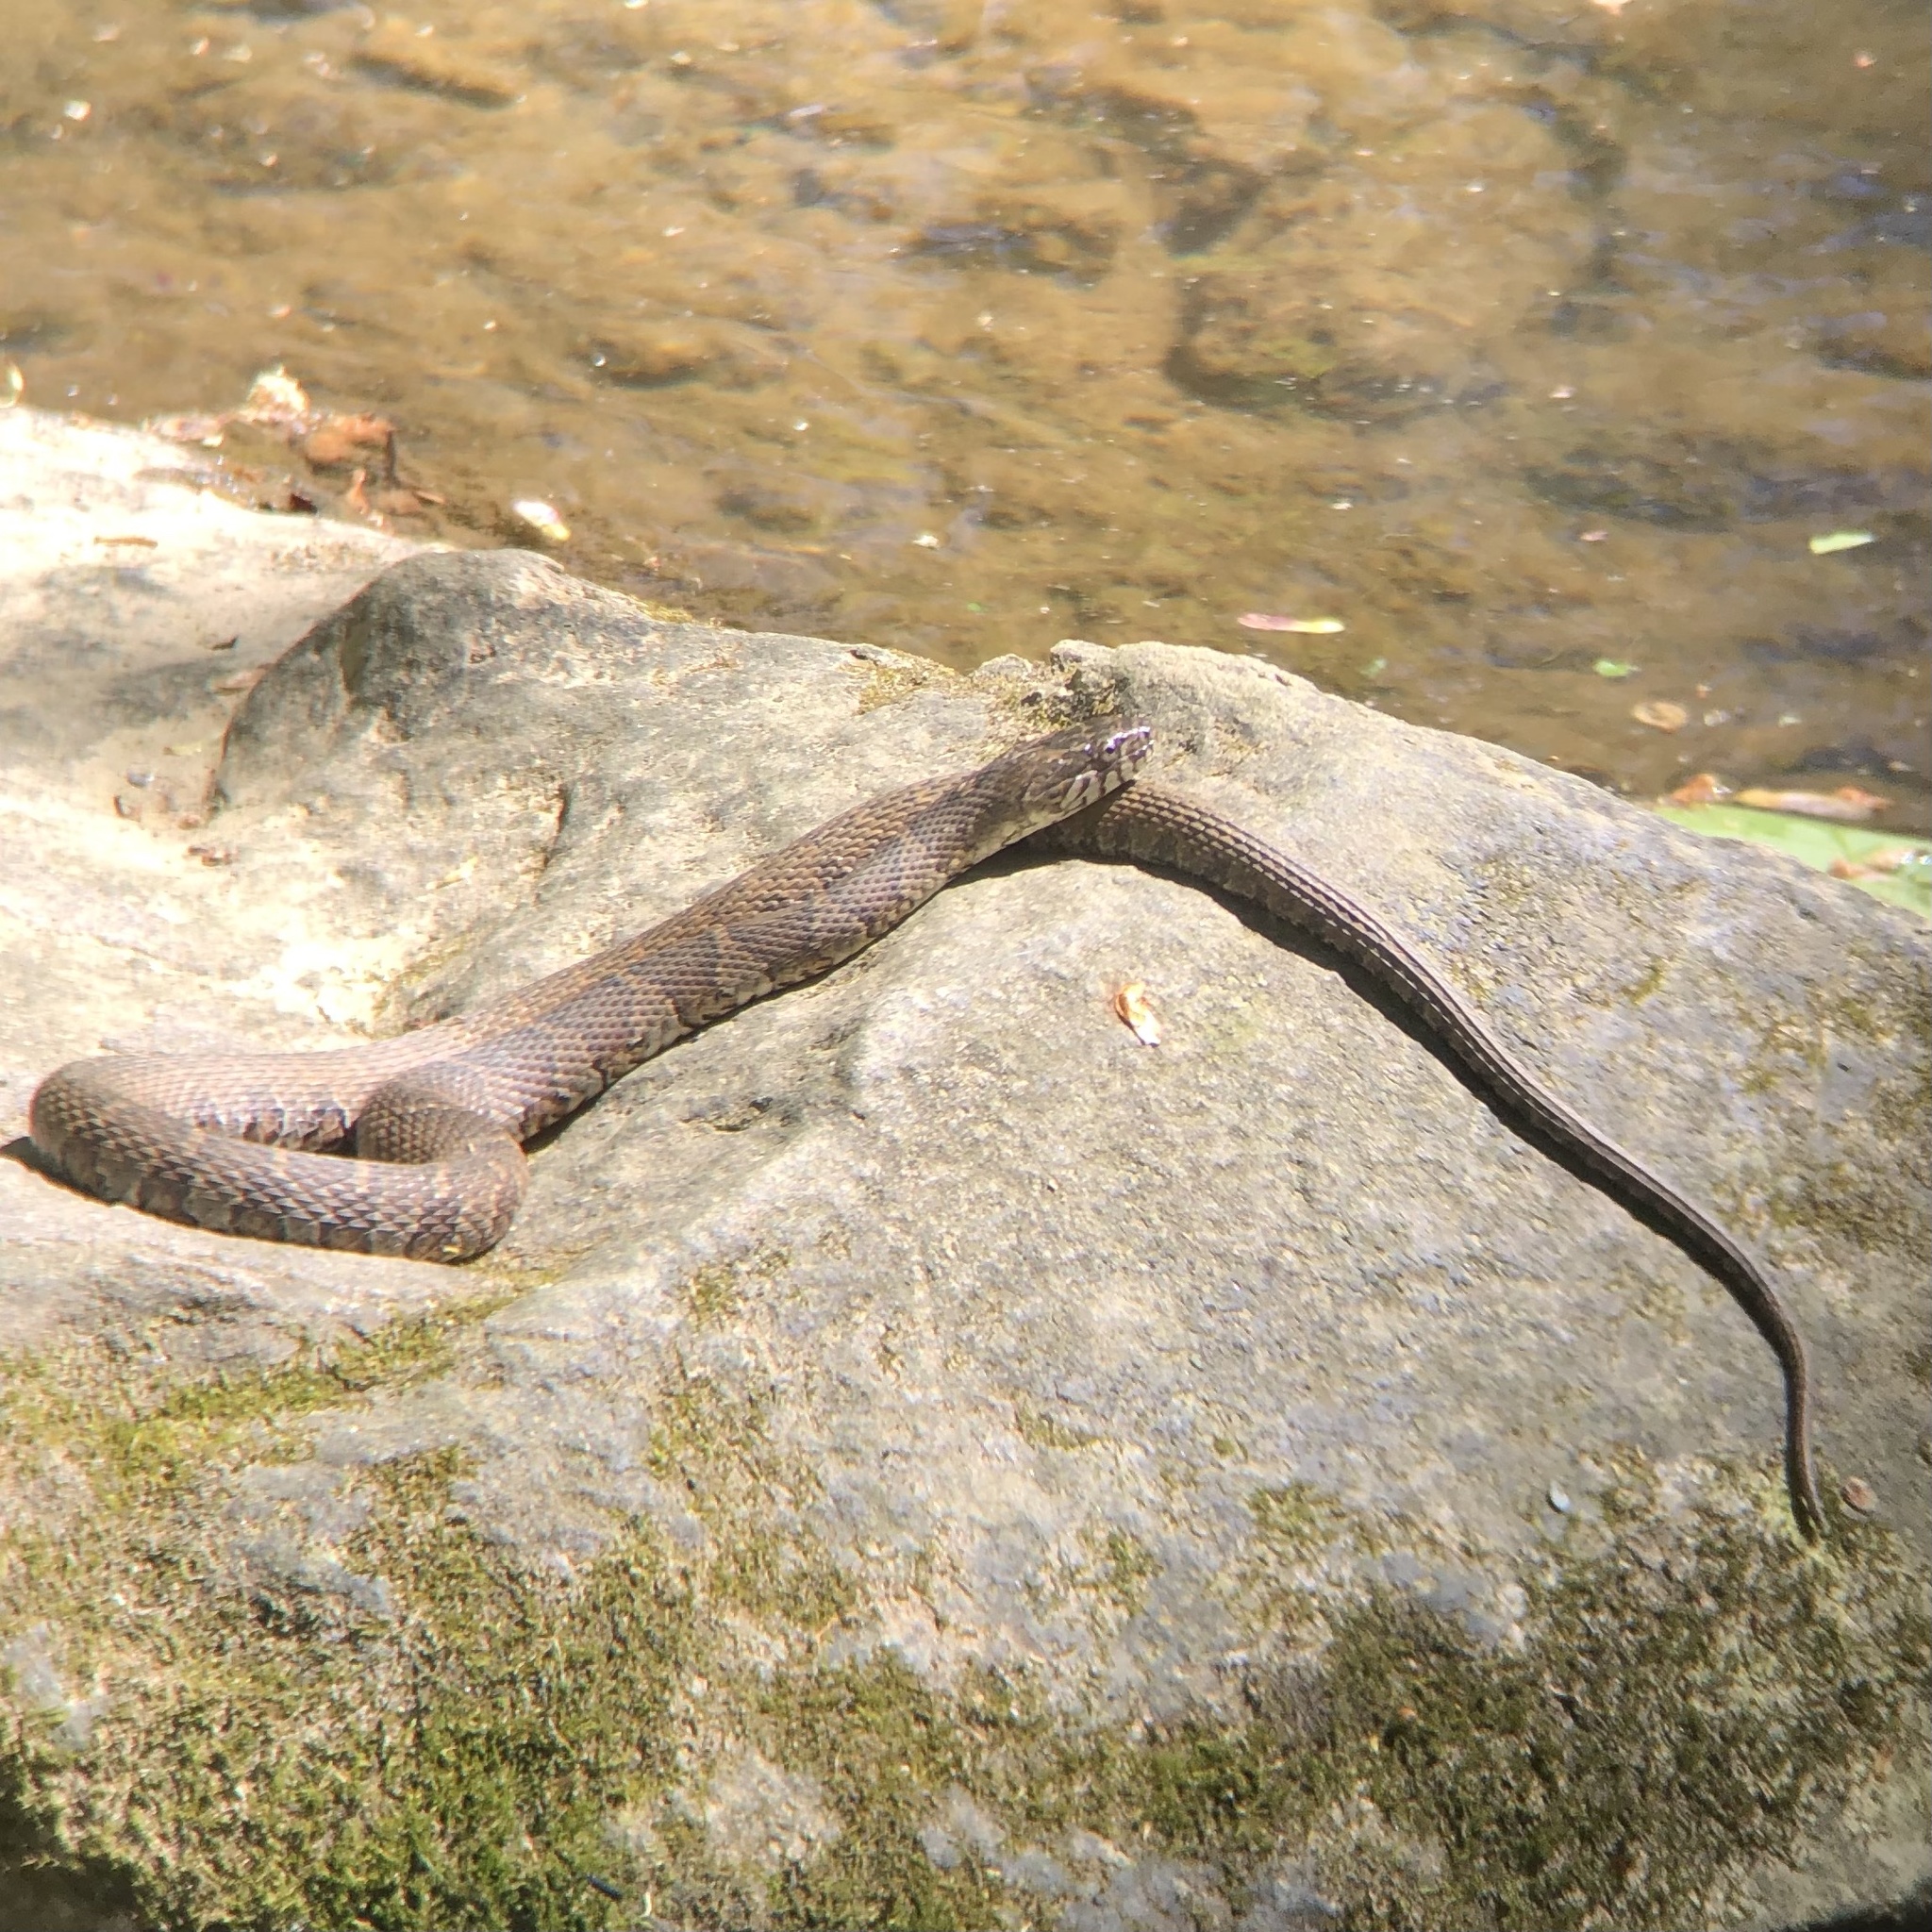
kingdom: Animalia
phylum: Chordata
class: Squamata
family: Colubridae
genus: Nerodia
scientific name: Nerodia sipedon
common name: Northern water snake
